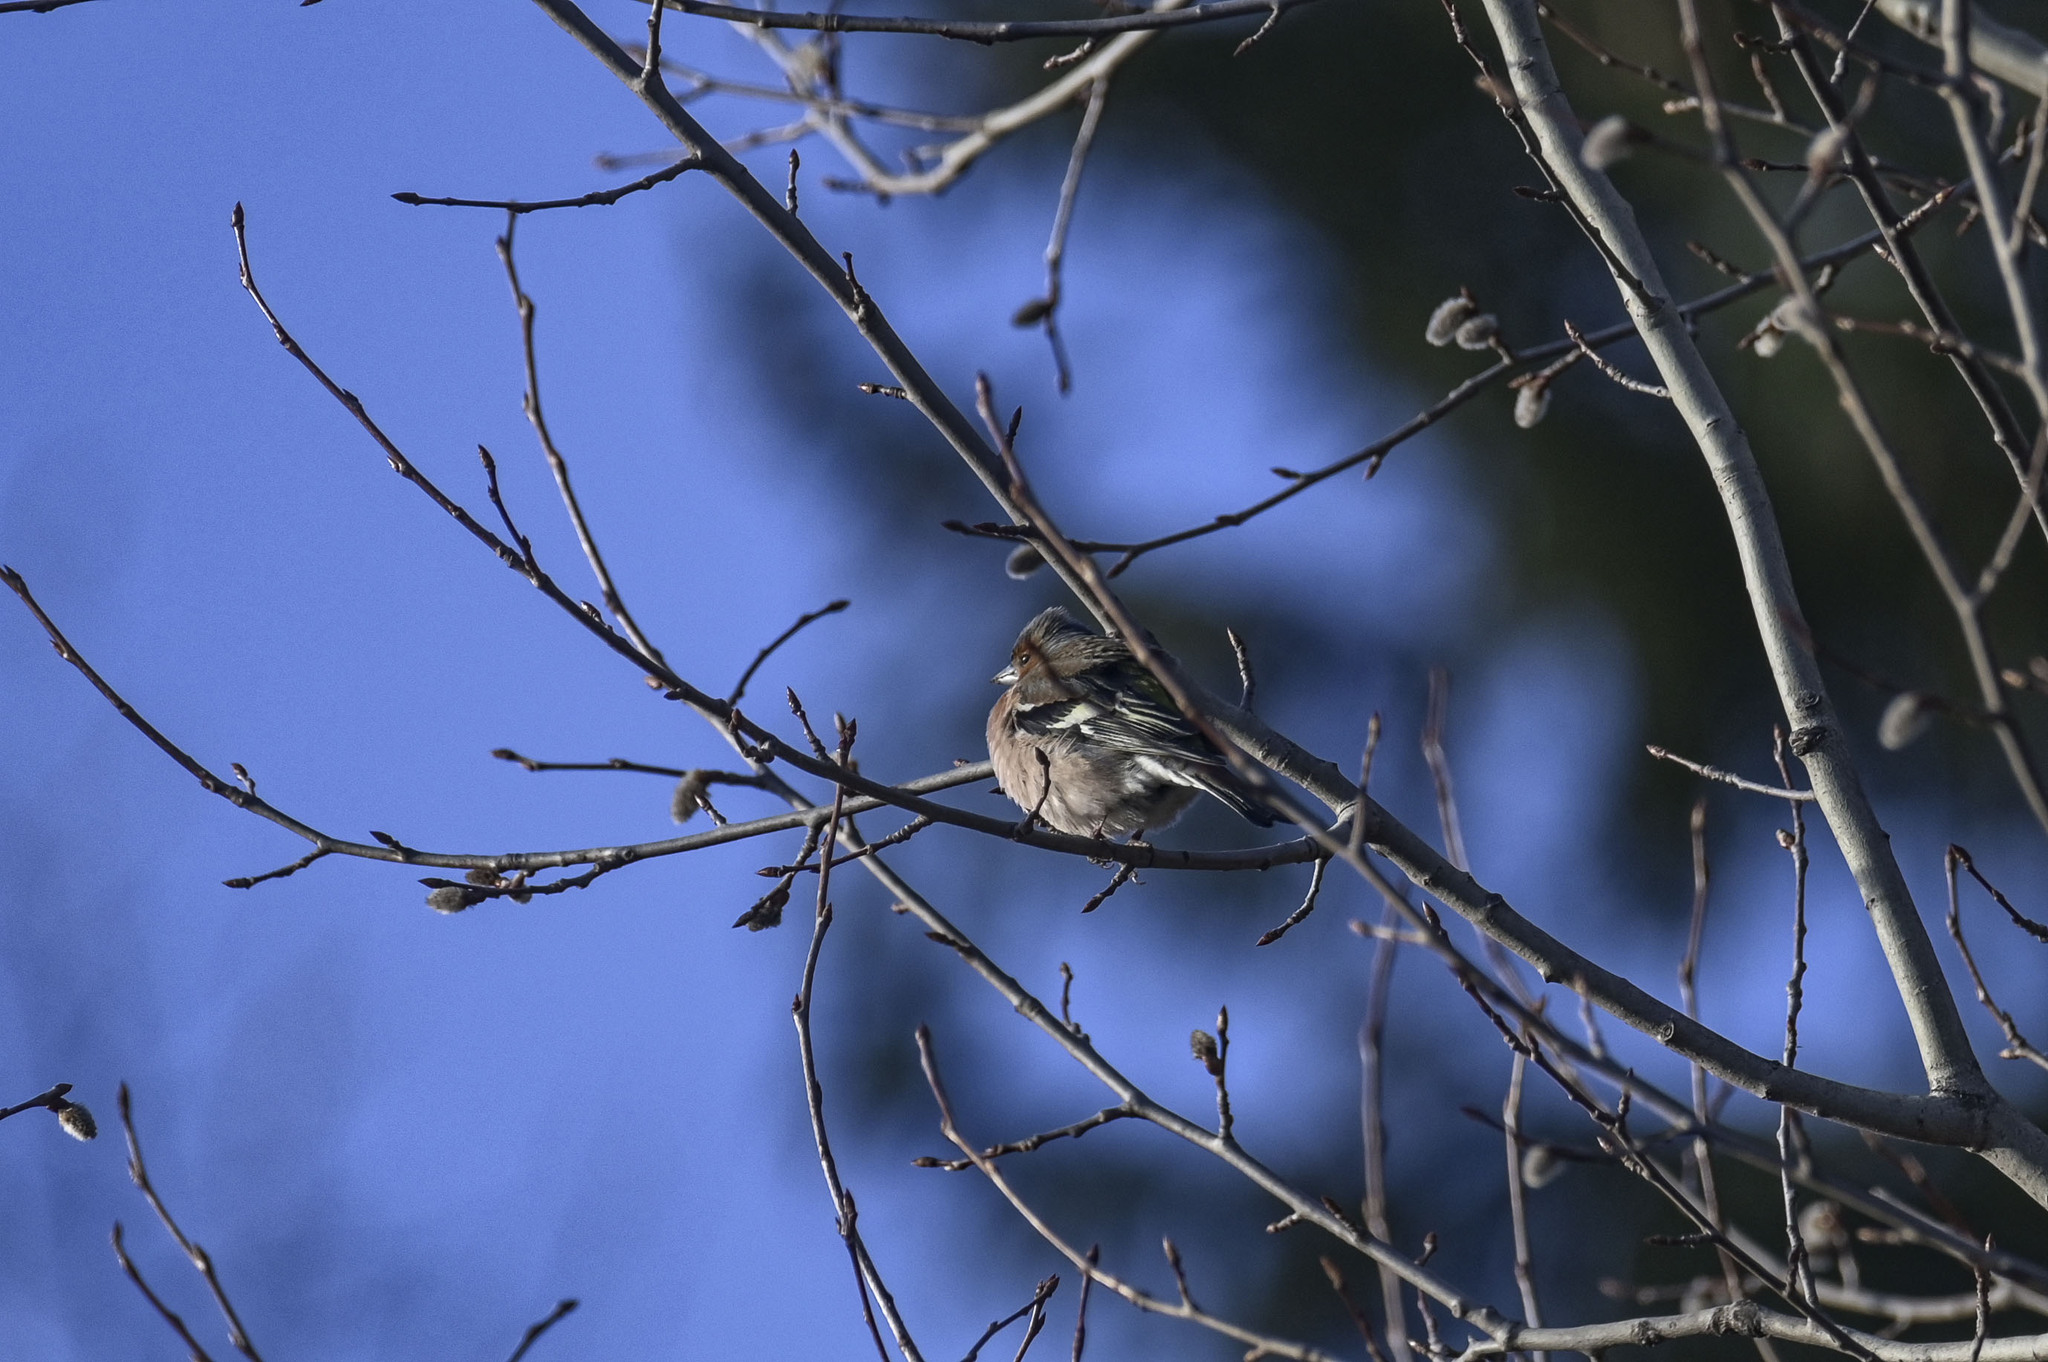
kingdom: Animalia
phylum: Chordata
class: Aves
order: Passeriformes
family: Fringillidae
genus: Fringilla
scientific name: Fringilla coelebs
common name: Common chaffinch
